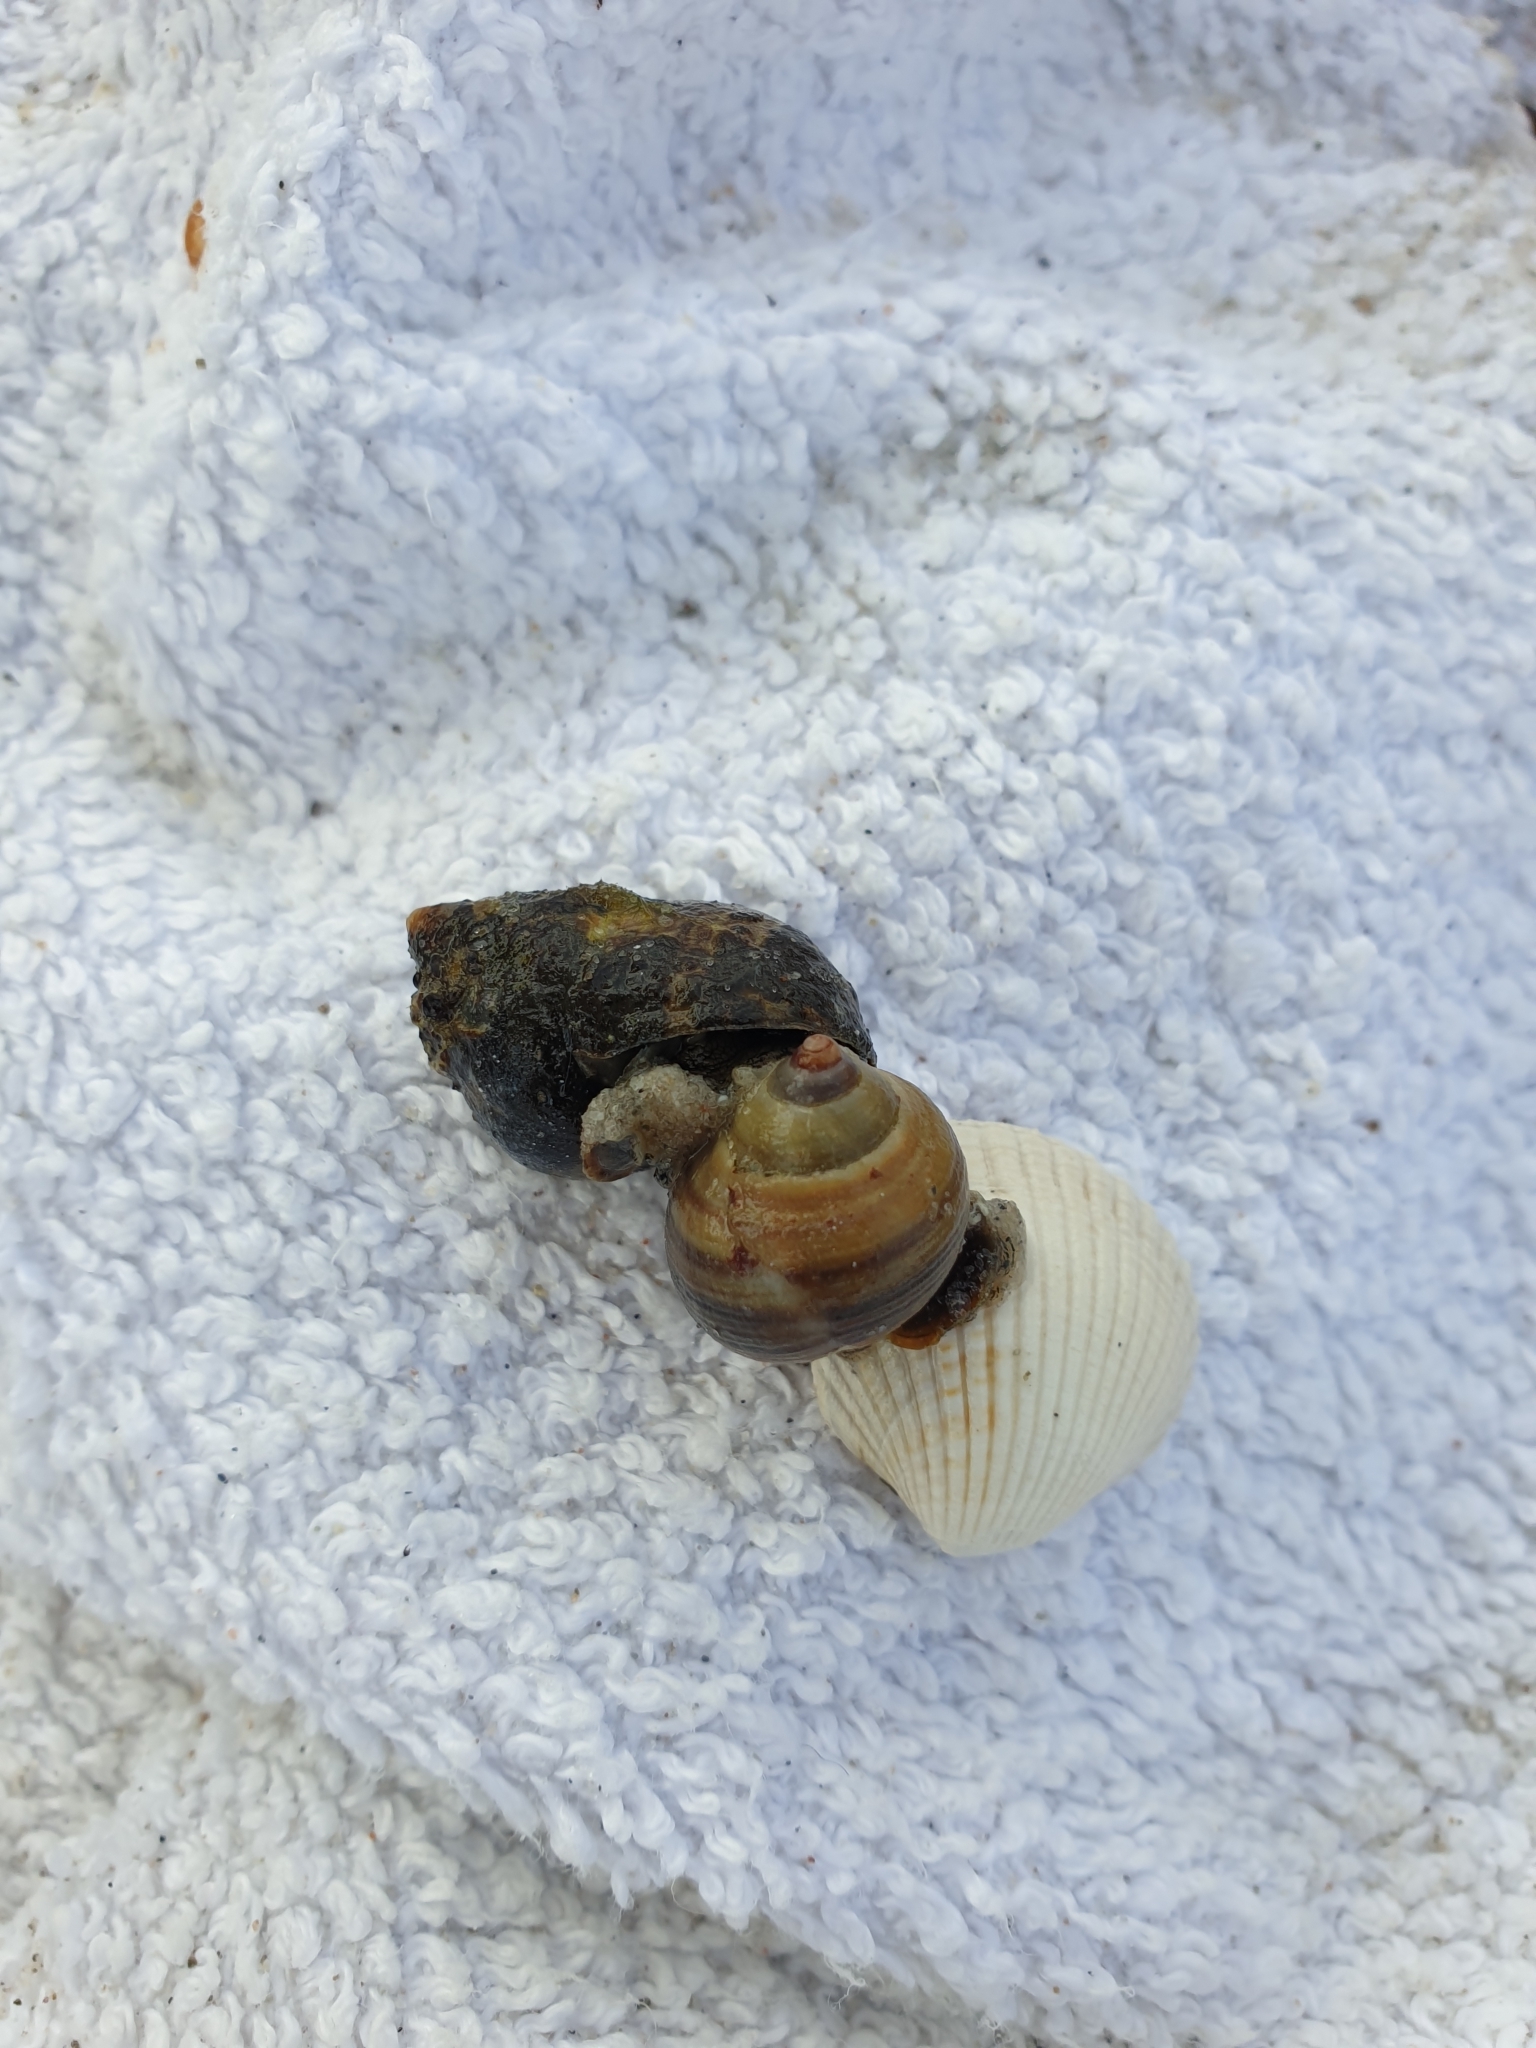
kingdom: Animalia
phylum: Mollusca
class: Gastropoda
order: Littorinimorpha
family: Littorinidae
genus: Littorina
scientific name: Littorina littorea
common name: Common periwinkle
